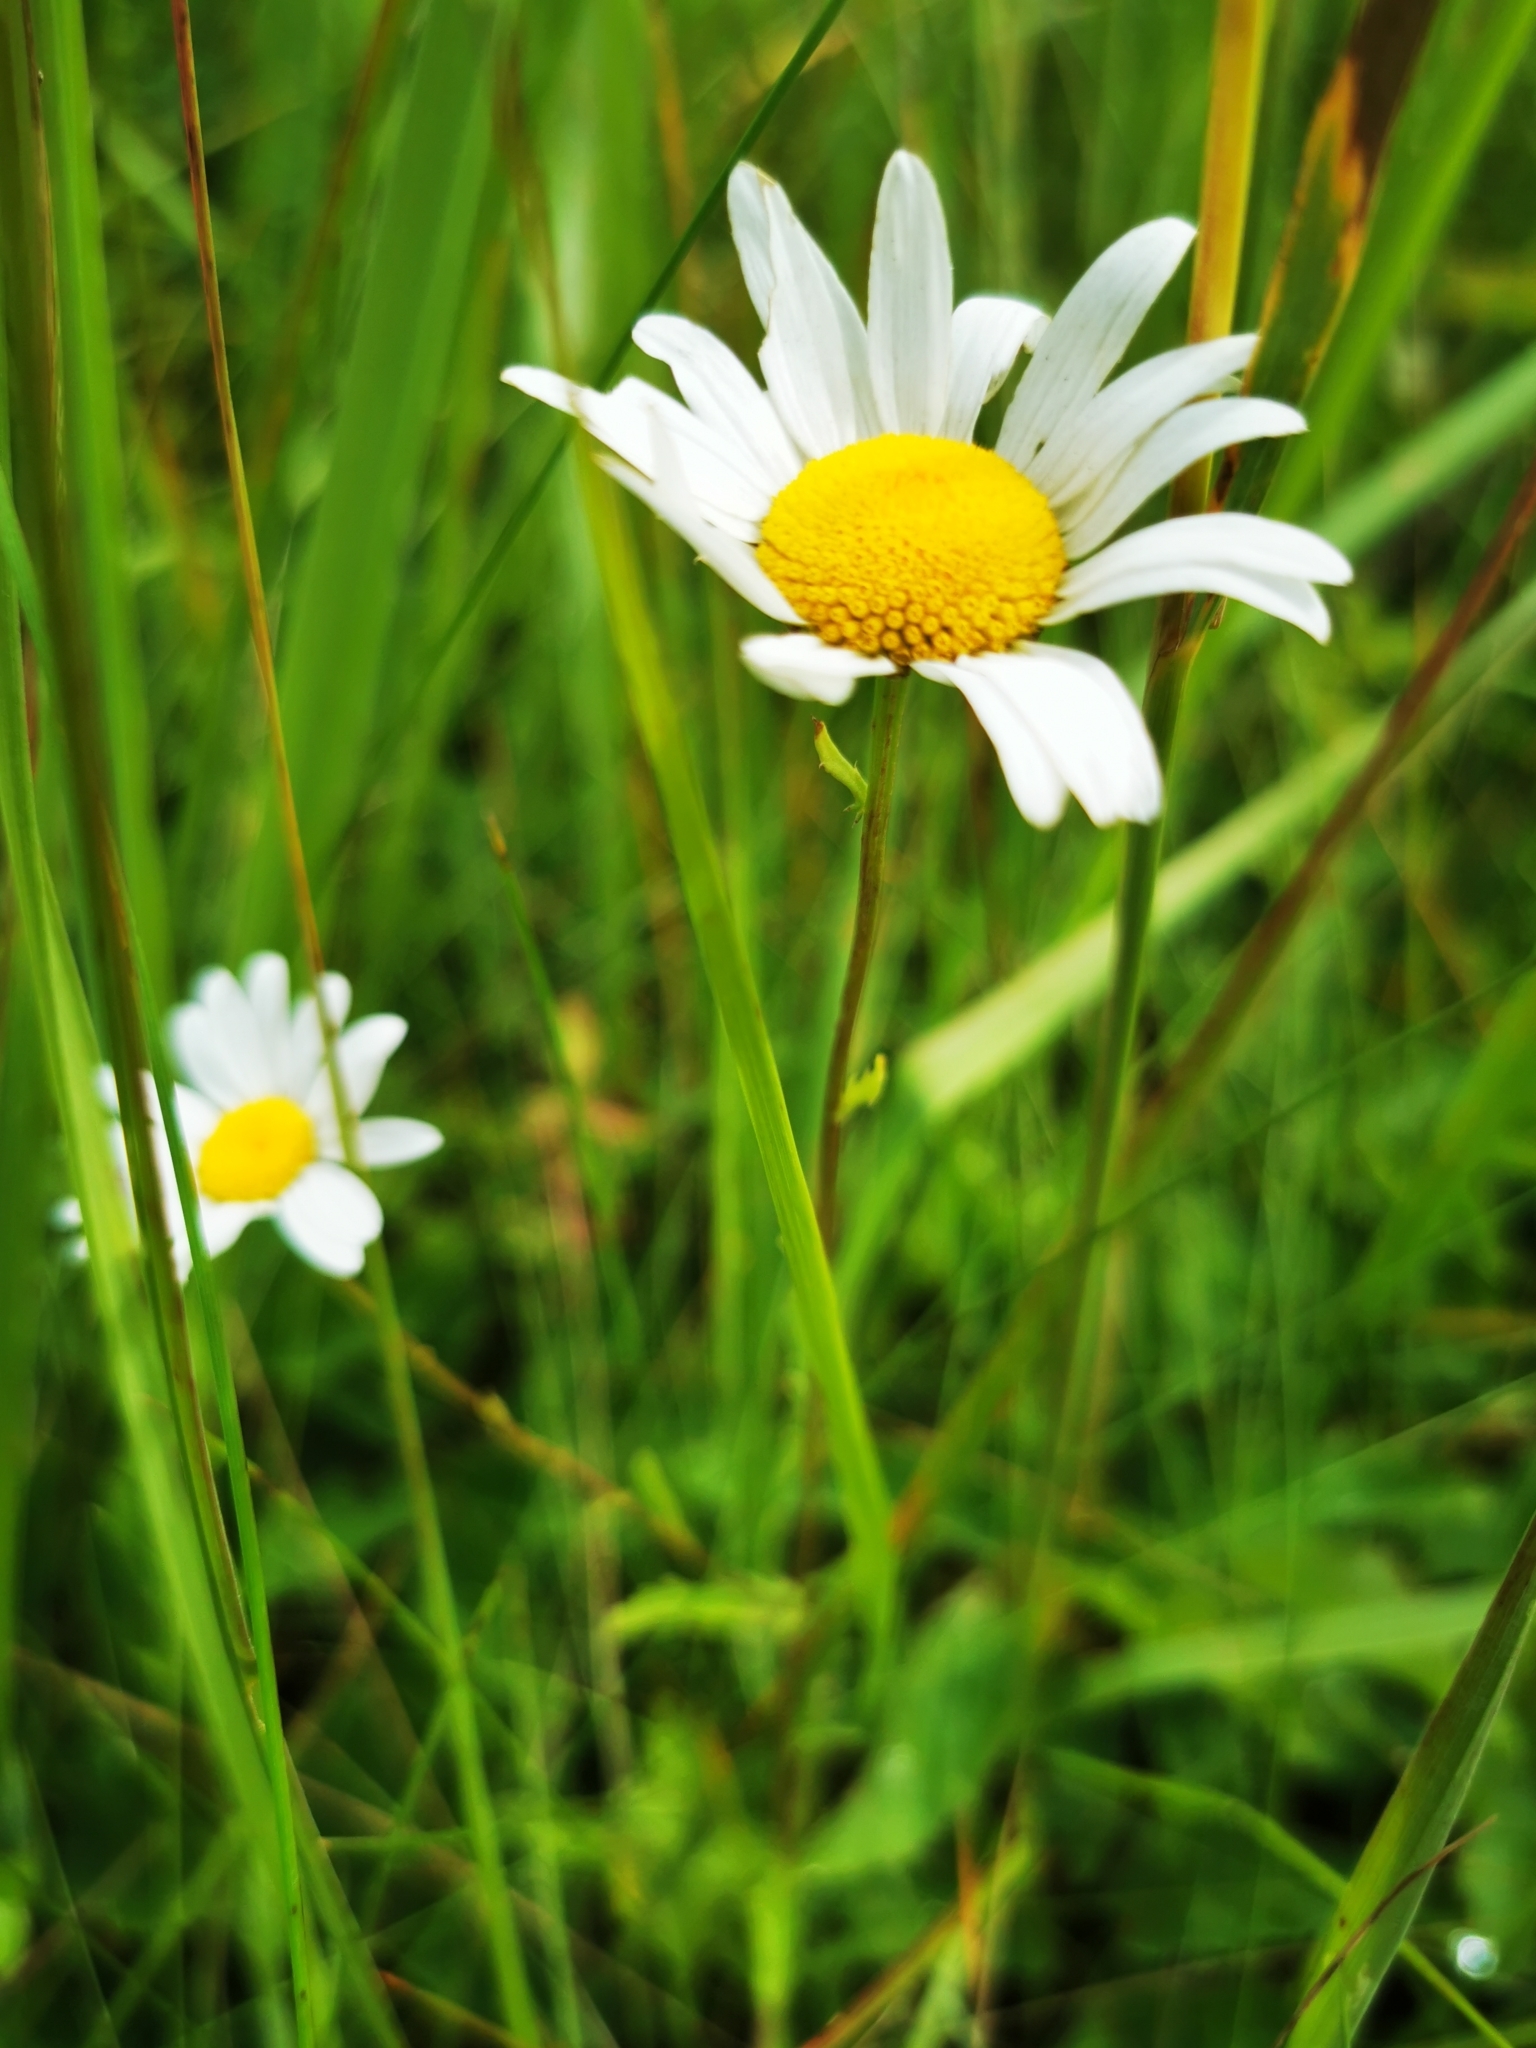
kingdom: Plantae
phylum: Tracheophyta
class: Magnoliopsida
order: Asterales
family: Asteraceae
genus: Leucanthemum
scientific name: Leucanthemum vulgare
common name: Oxeye daisy
